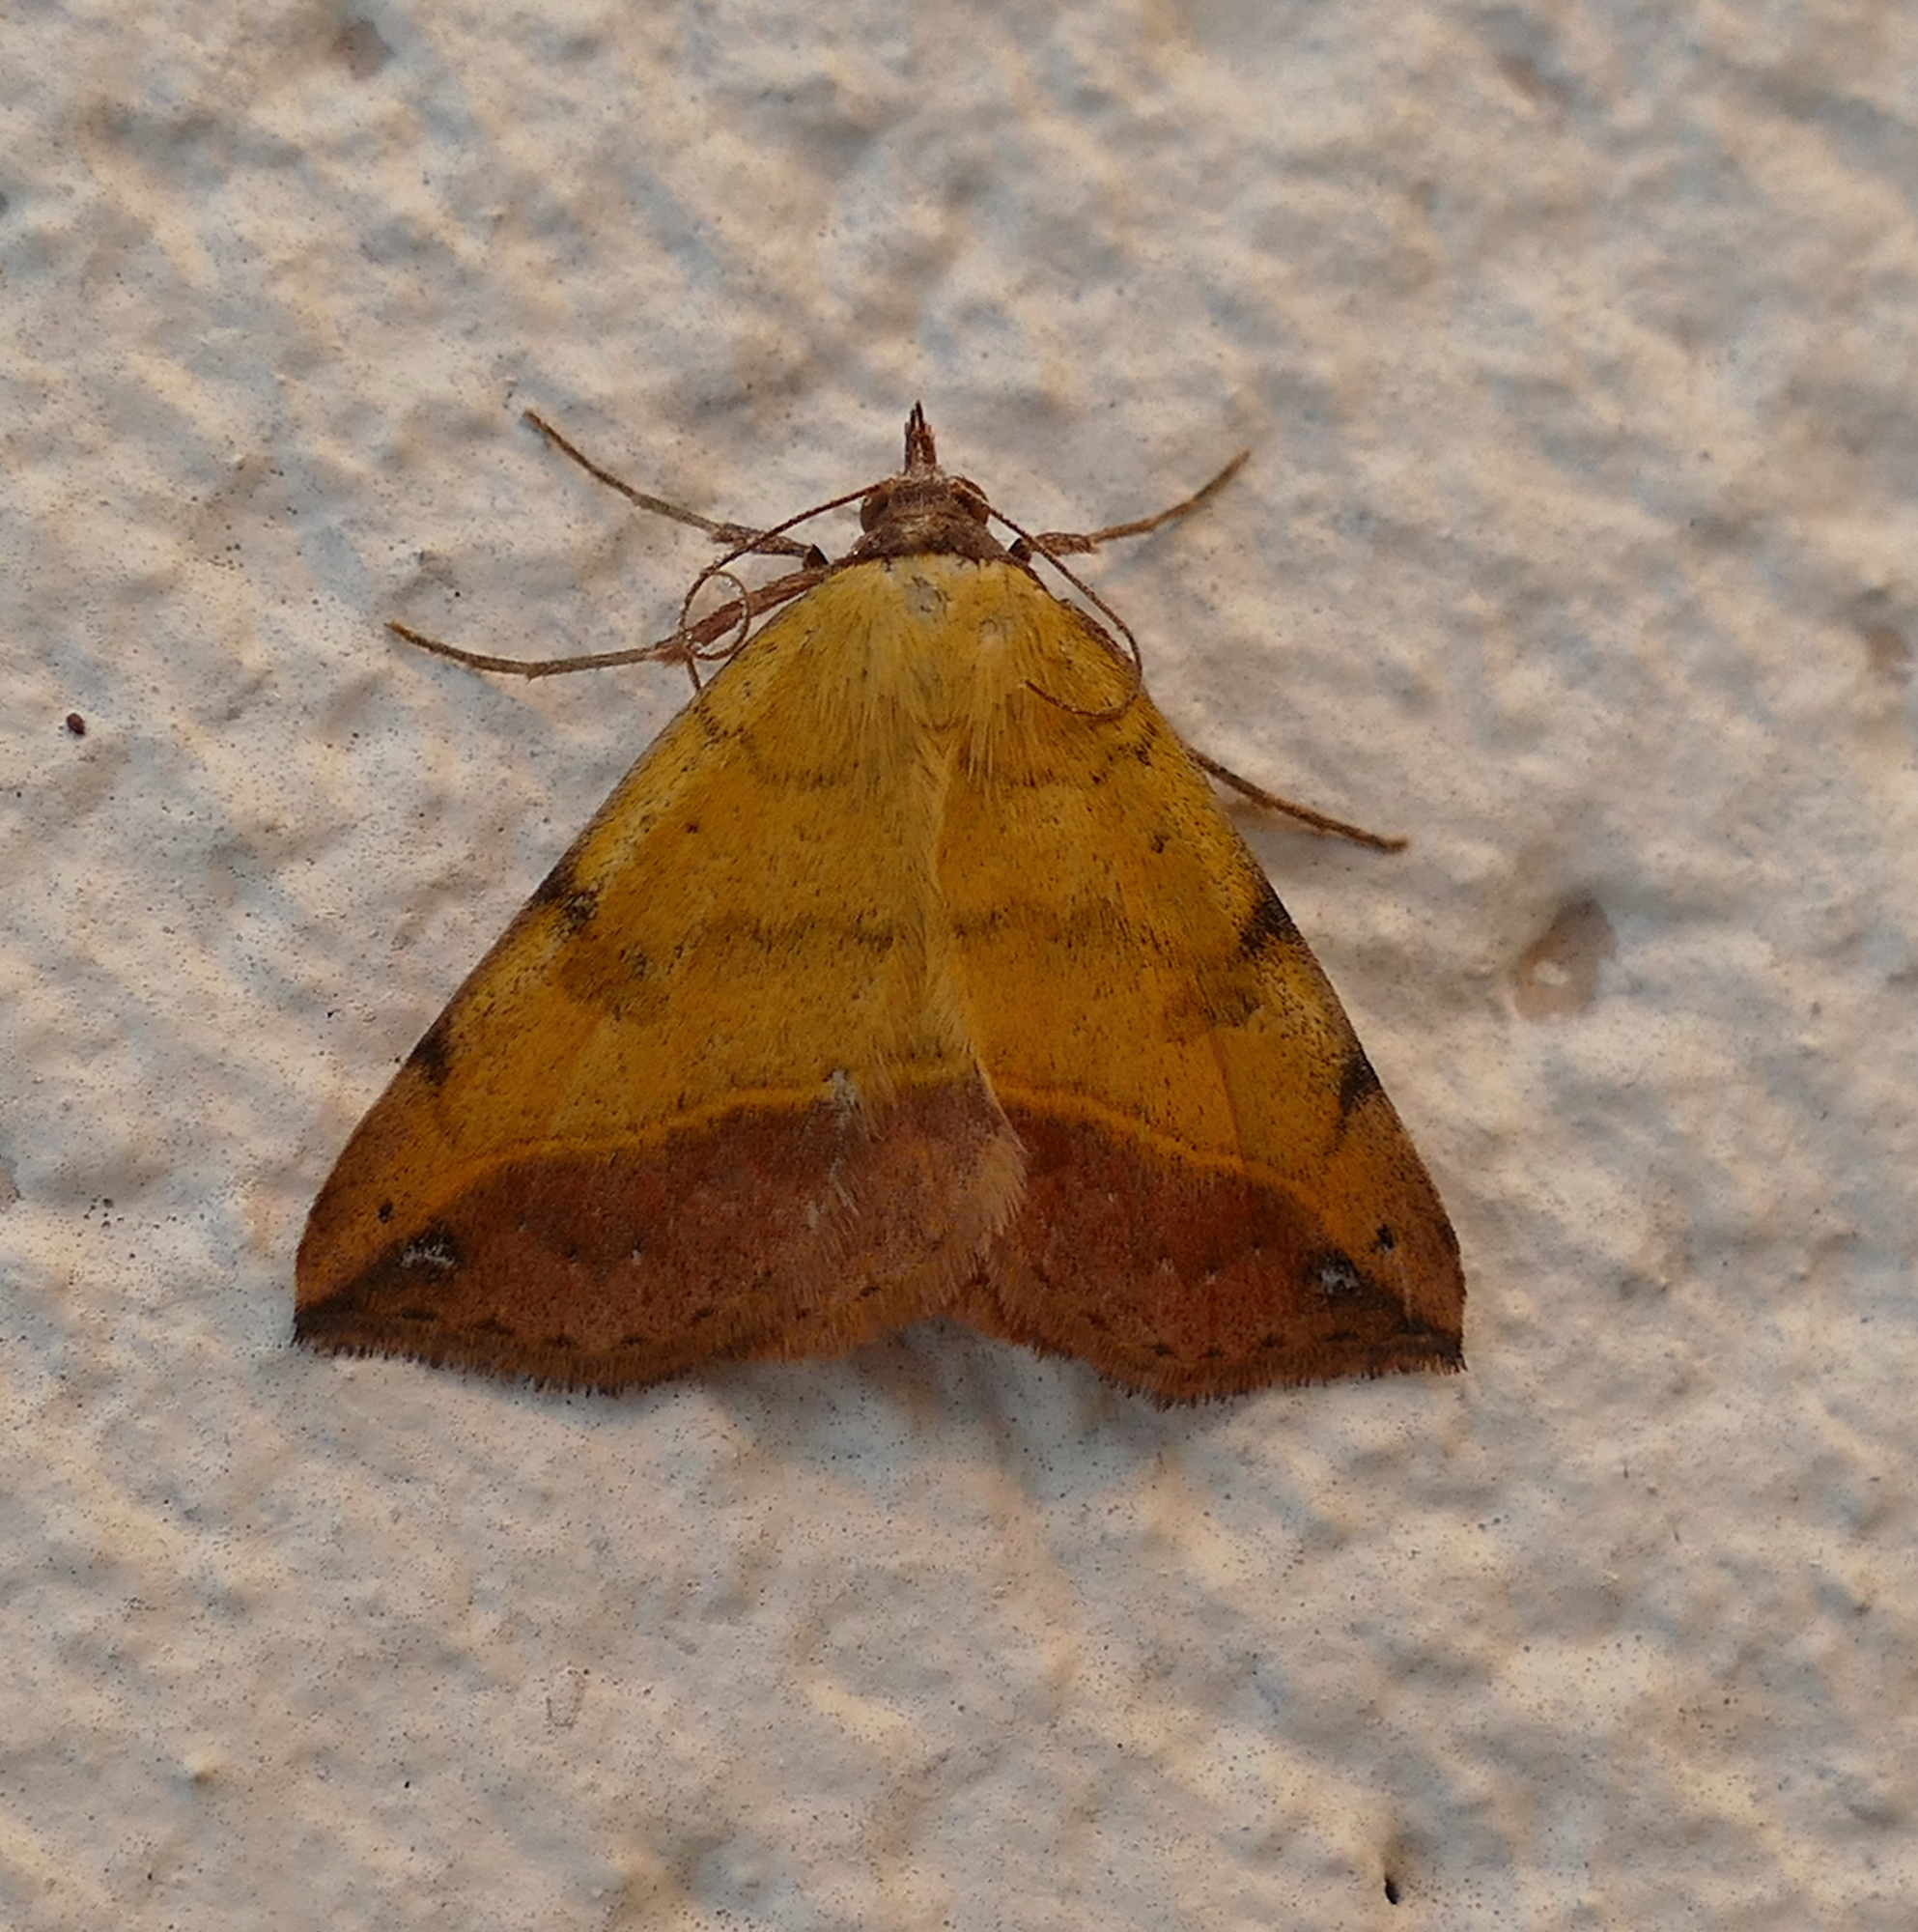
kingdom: Animalia
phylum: Arthropoda
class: Insecta
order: Lepidoptera
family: Erebidae
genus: Hemeroplanis
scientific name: Hemeroplanis scopulepes
